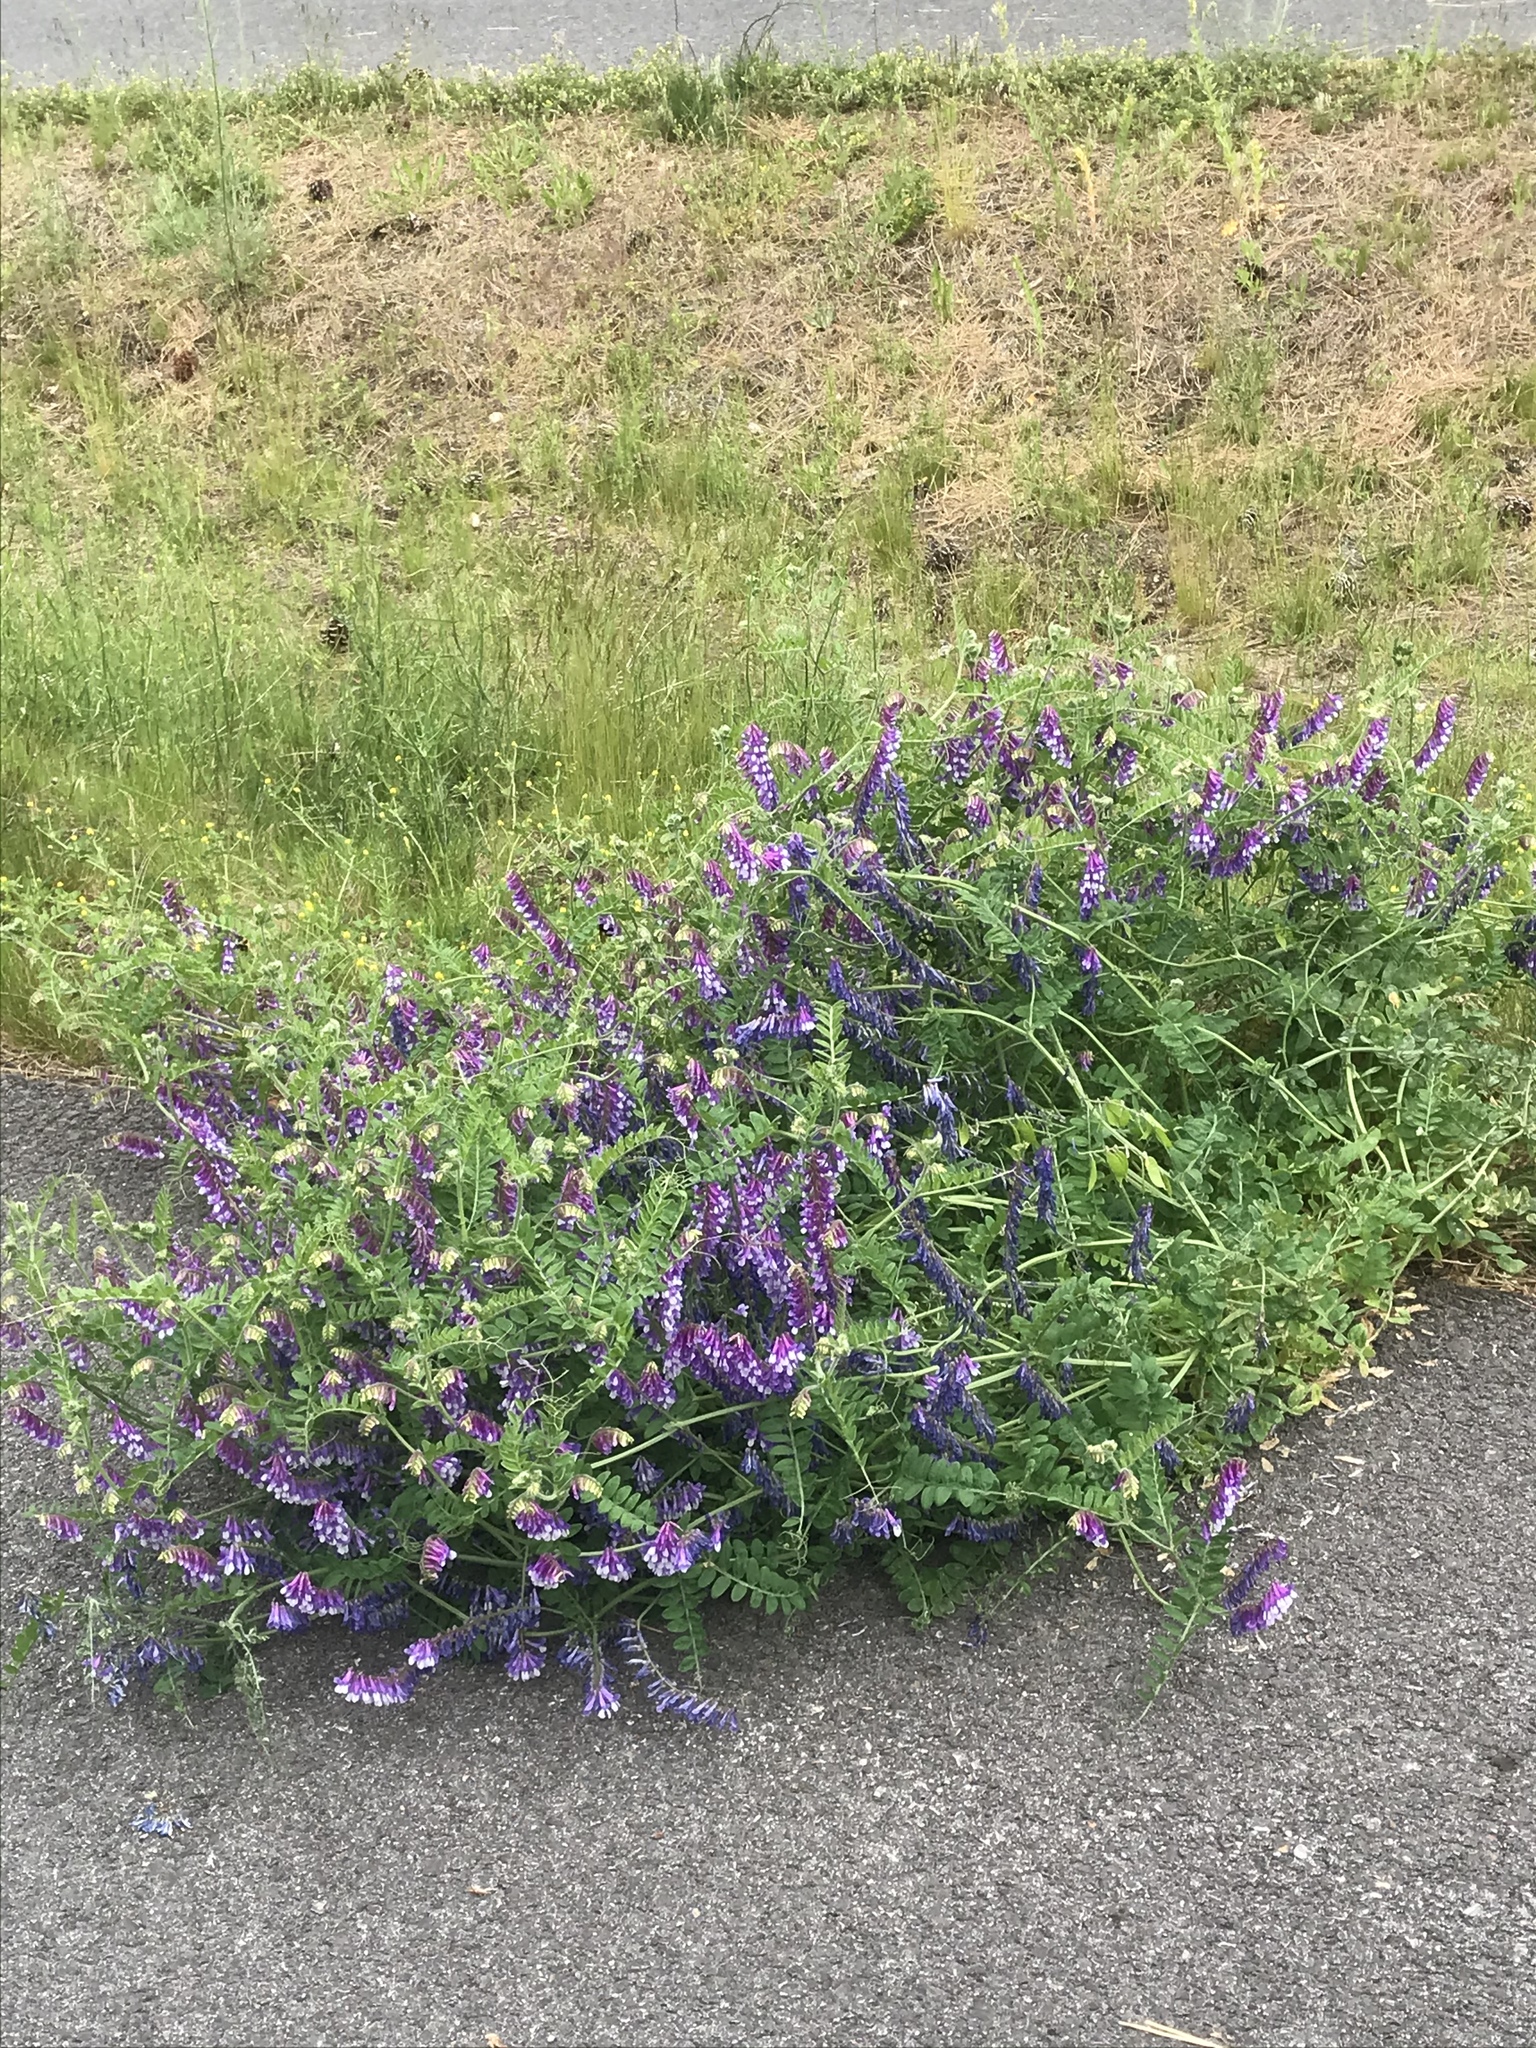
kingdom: Plantae
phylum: Tracheophyta
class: Magnoliopsida
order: Fabales
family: Fabaceae
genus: Vicia
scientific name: Vicia villosa
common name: Fodder vetch
